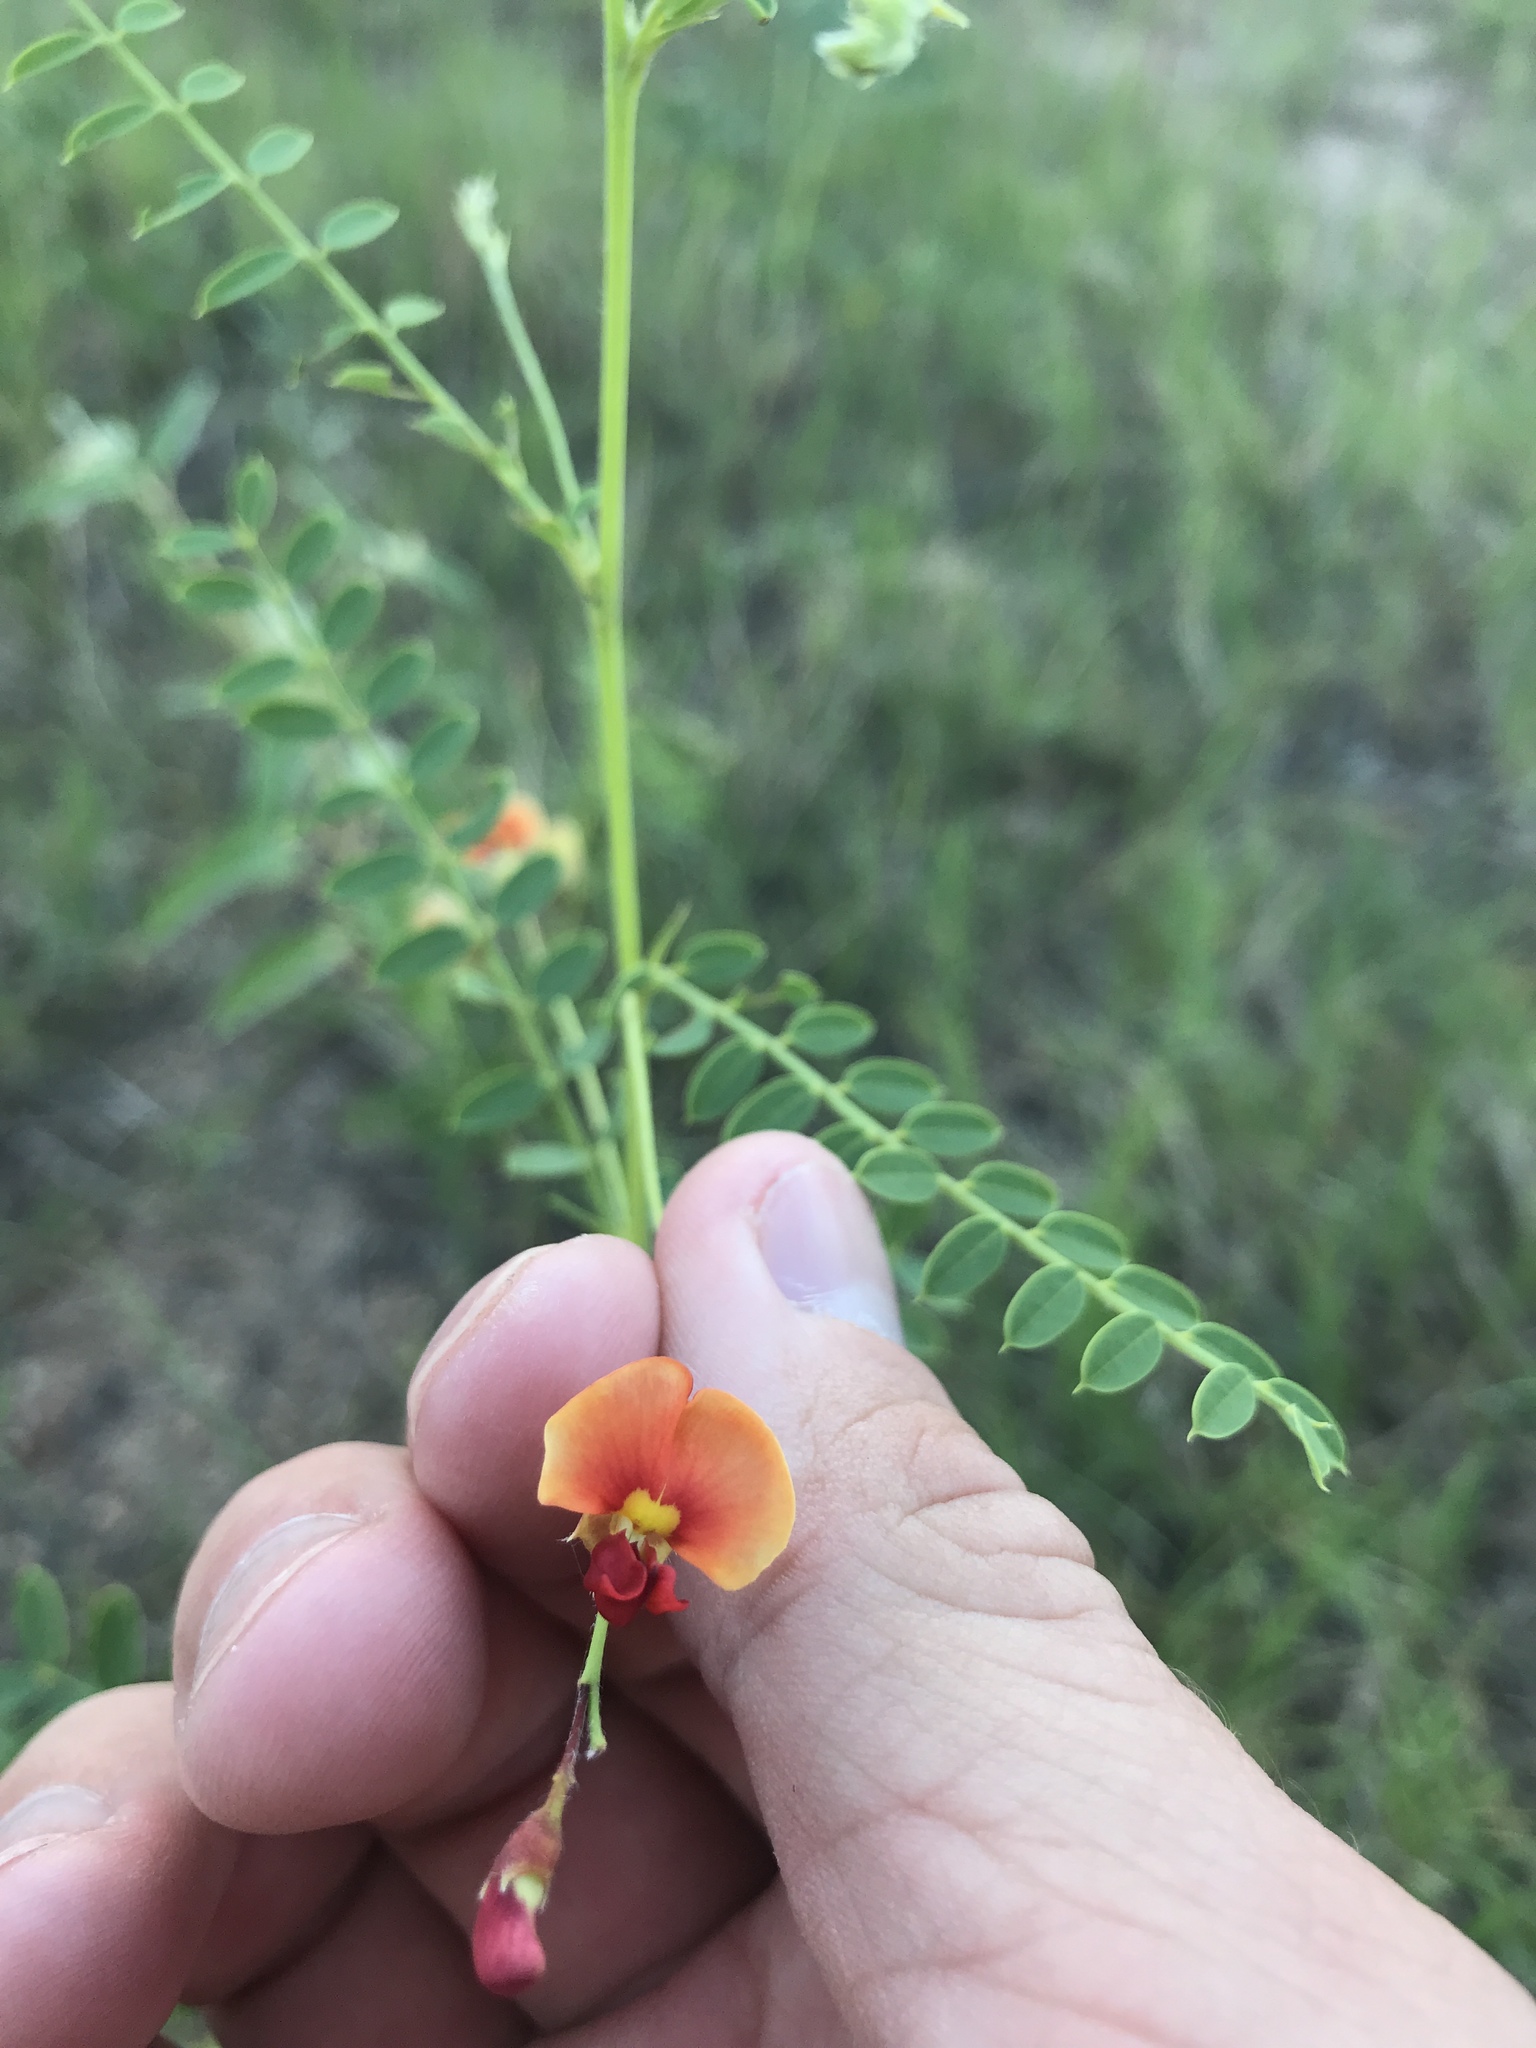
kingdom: Plantae
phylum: Tracheophyta
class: Magnoliopsida
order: Fabales
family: Fabaceae
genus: Sesbania
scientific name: Sesbania vesicaria
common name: Bagpod
